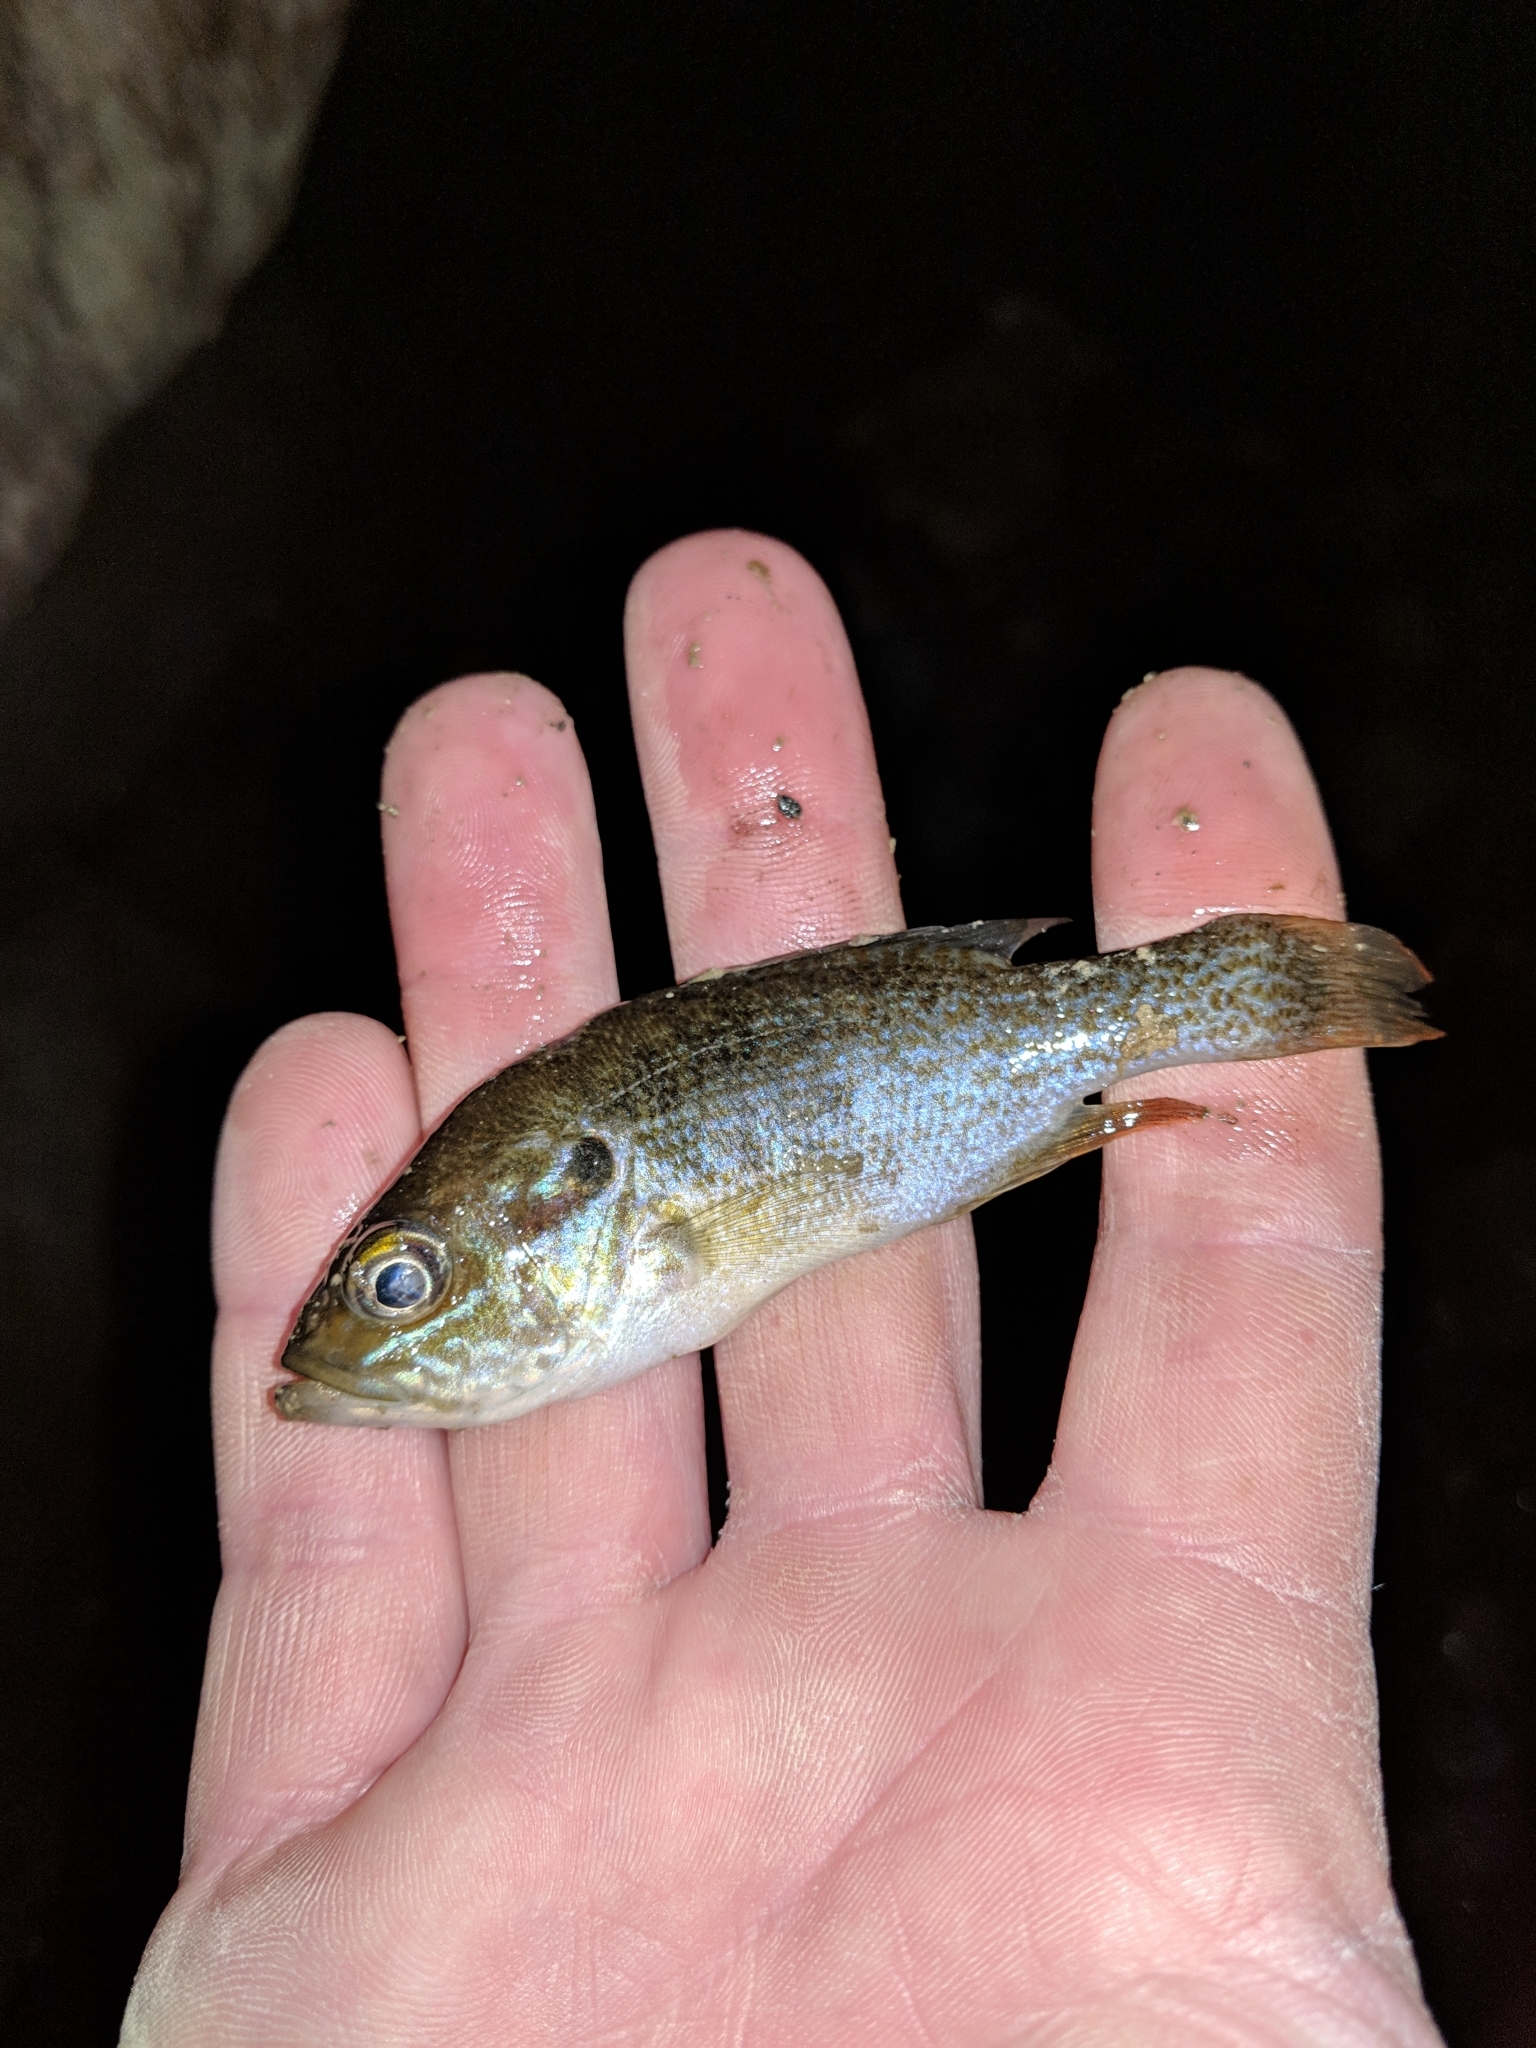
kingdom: Animalia
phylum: Chordata
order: Perciformes
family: Centrarchidae
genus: Lepomis
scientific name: Lepomis cyanellus
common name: Green sunfish
